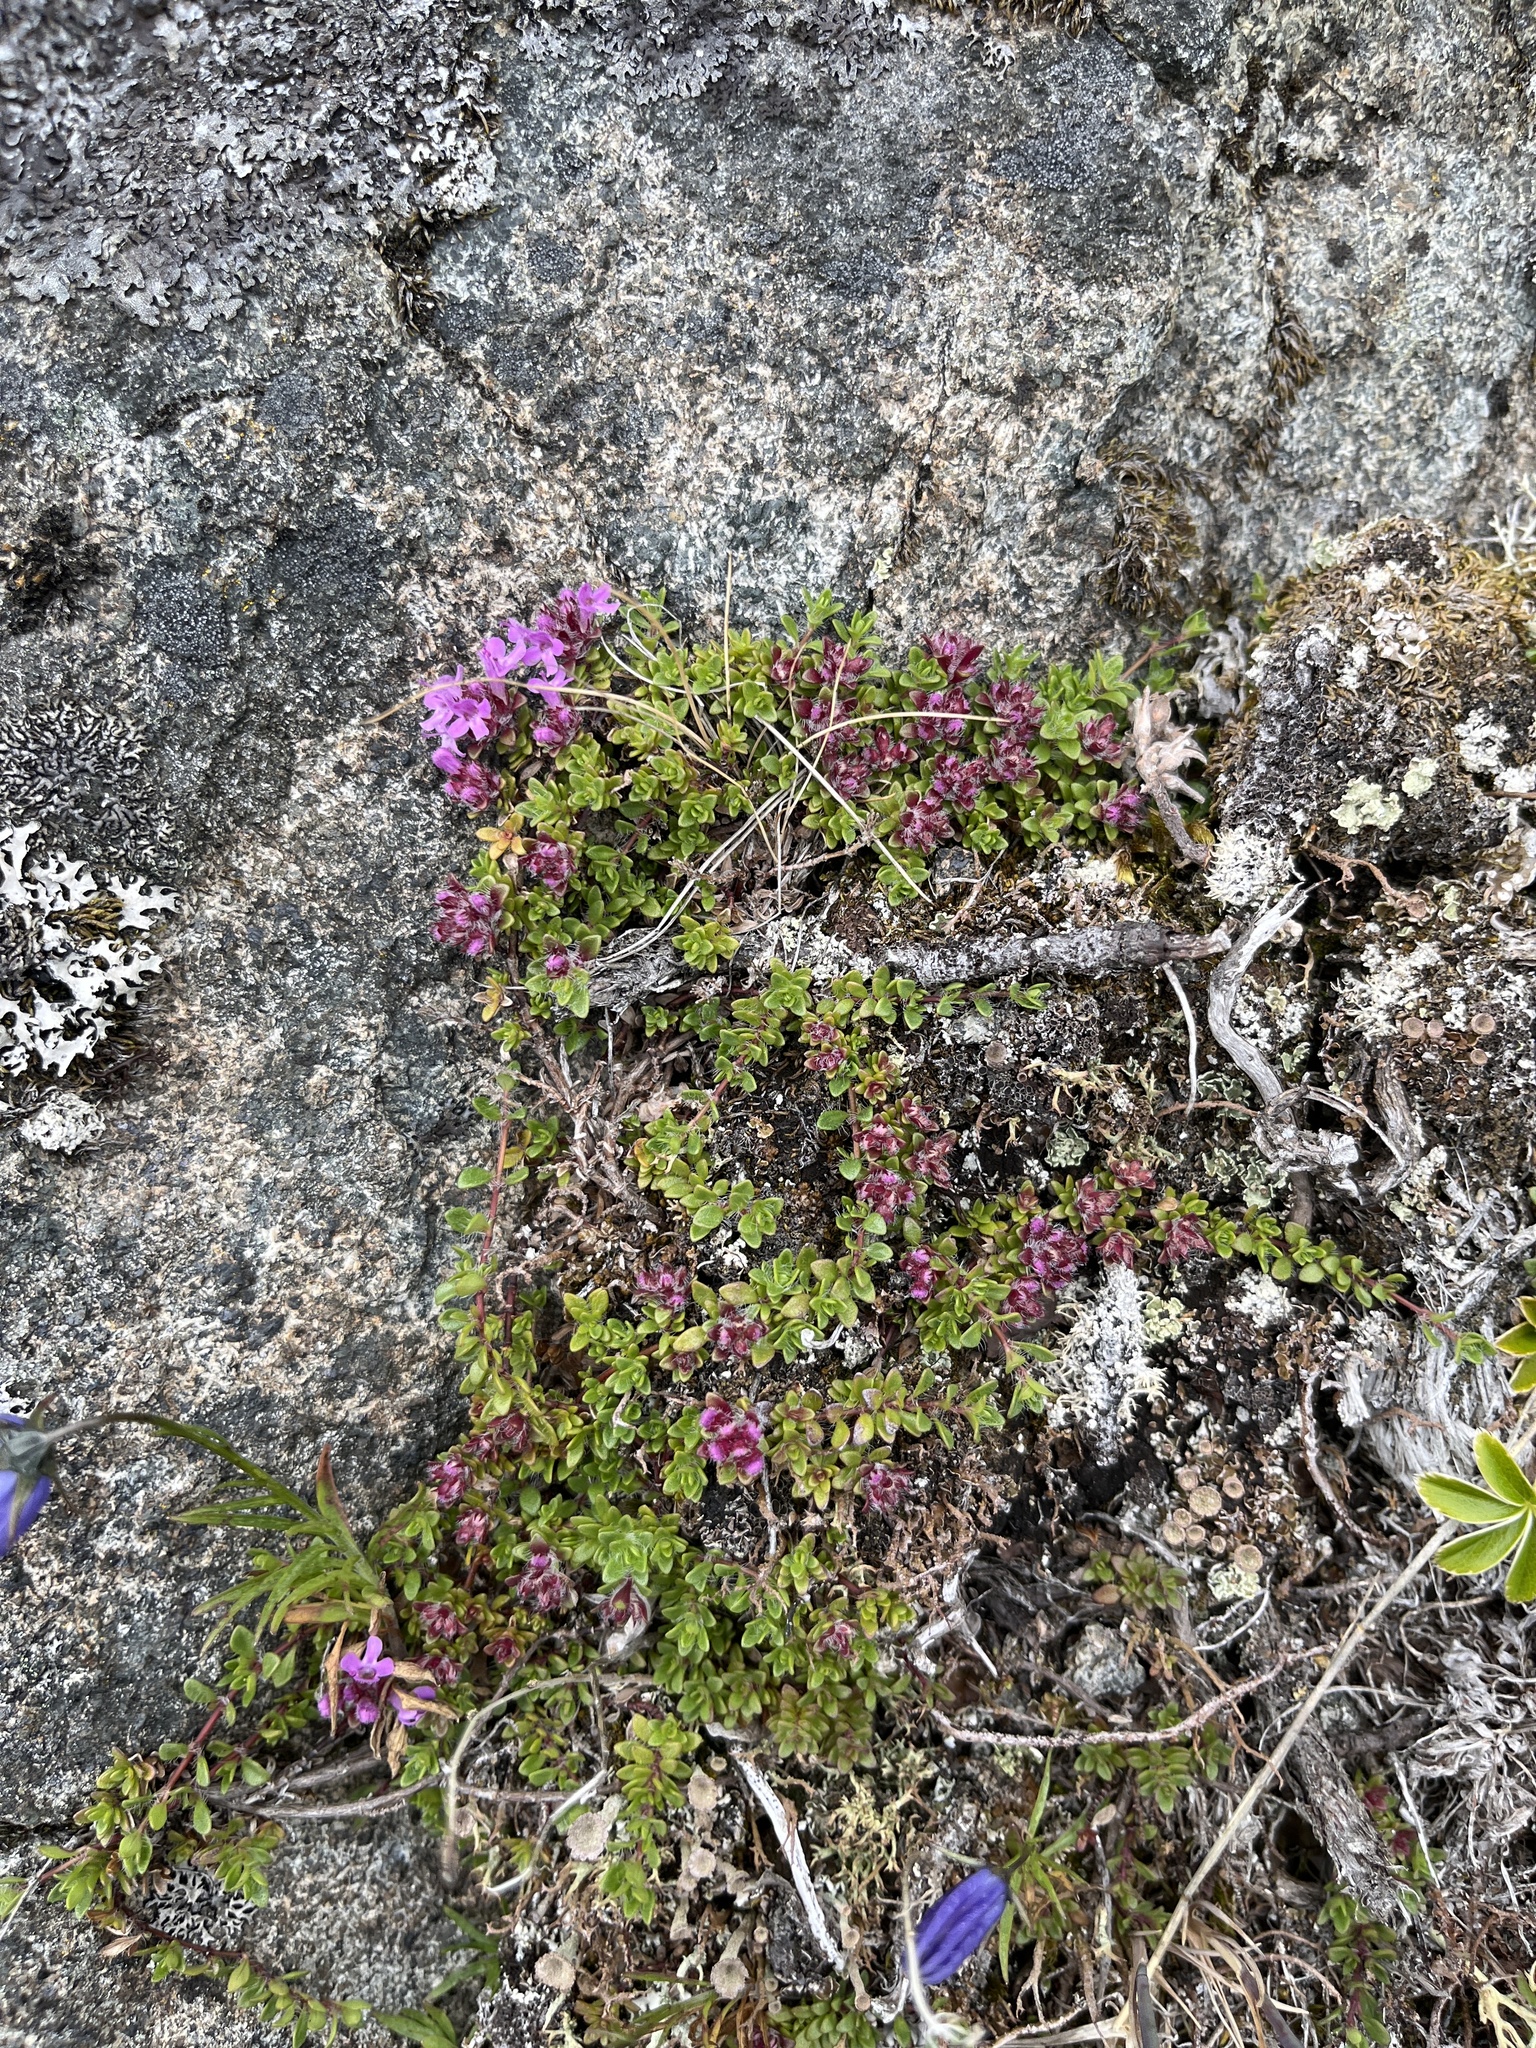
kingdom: Plantae
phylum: Tracheophyta
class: Magnoliopsida
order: Lamiales
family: Lamiaceae
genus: Thymus
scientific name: Thymus praecox
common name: Wild thyme
